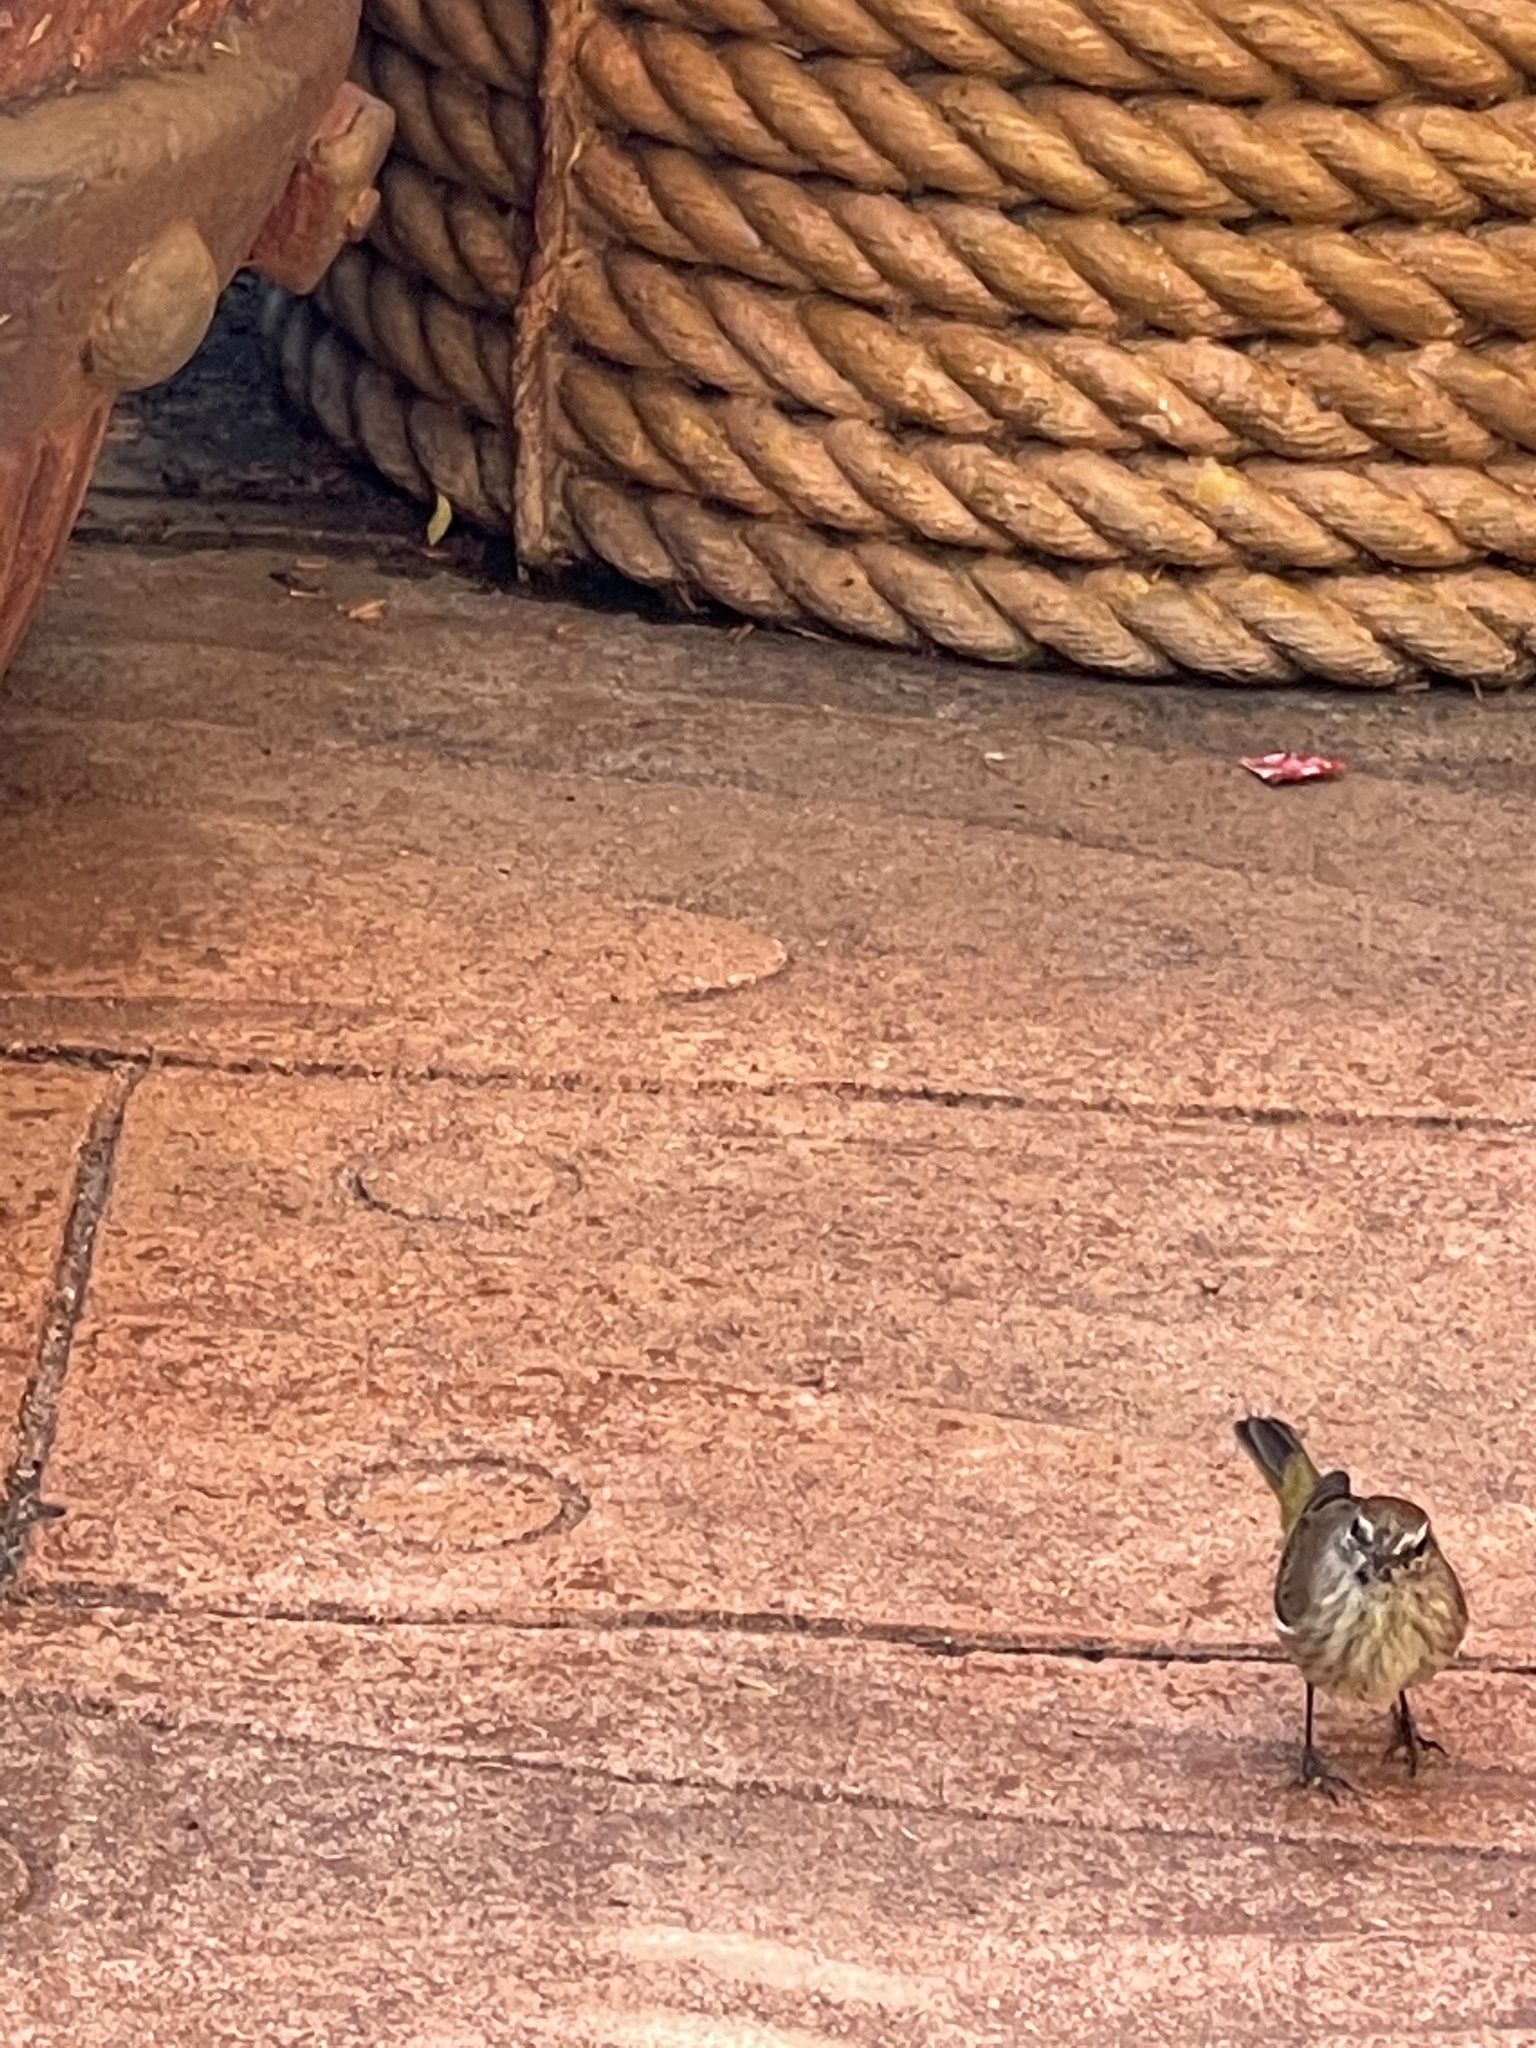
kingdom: Animalia
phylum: Chordata
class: Aves
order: Passeriformes
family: Parulidae
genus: Setophaga
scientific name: Setophaga palmarum
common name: Palm warbler
